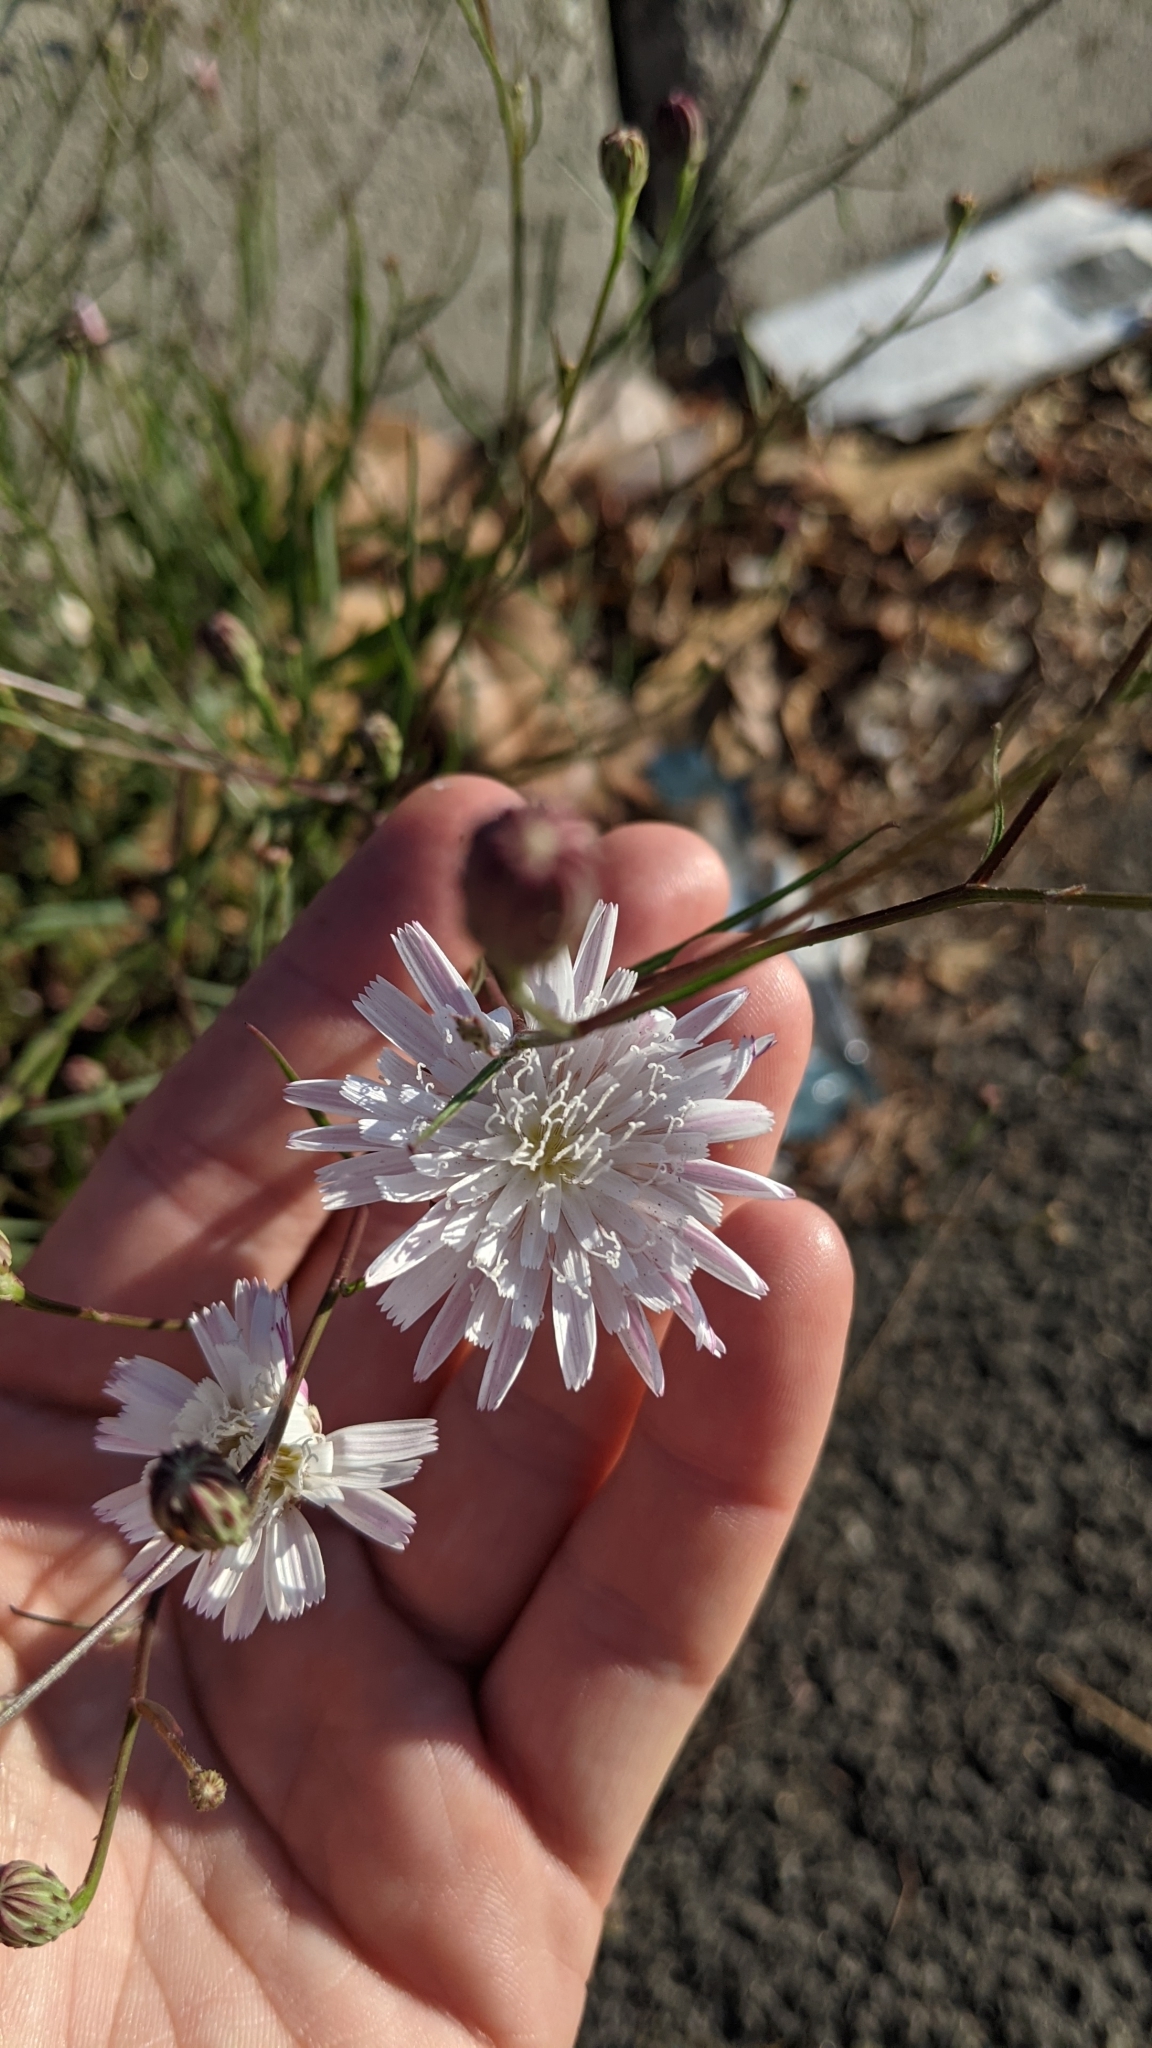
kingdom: Plantae
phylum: Tracheophyta
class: Magnoliopsida
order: Asterales
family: Asteraceae
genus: Malacothrix
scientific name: Malacothrix saxatilis
